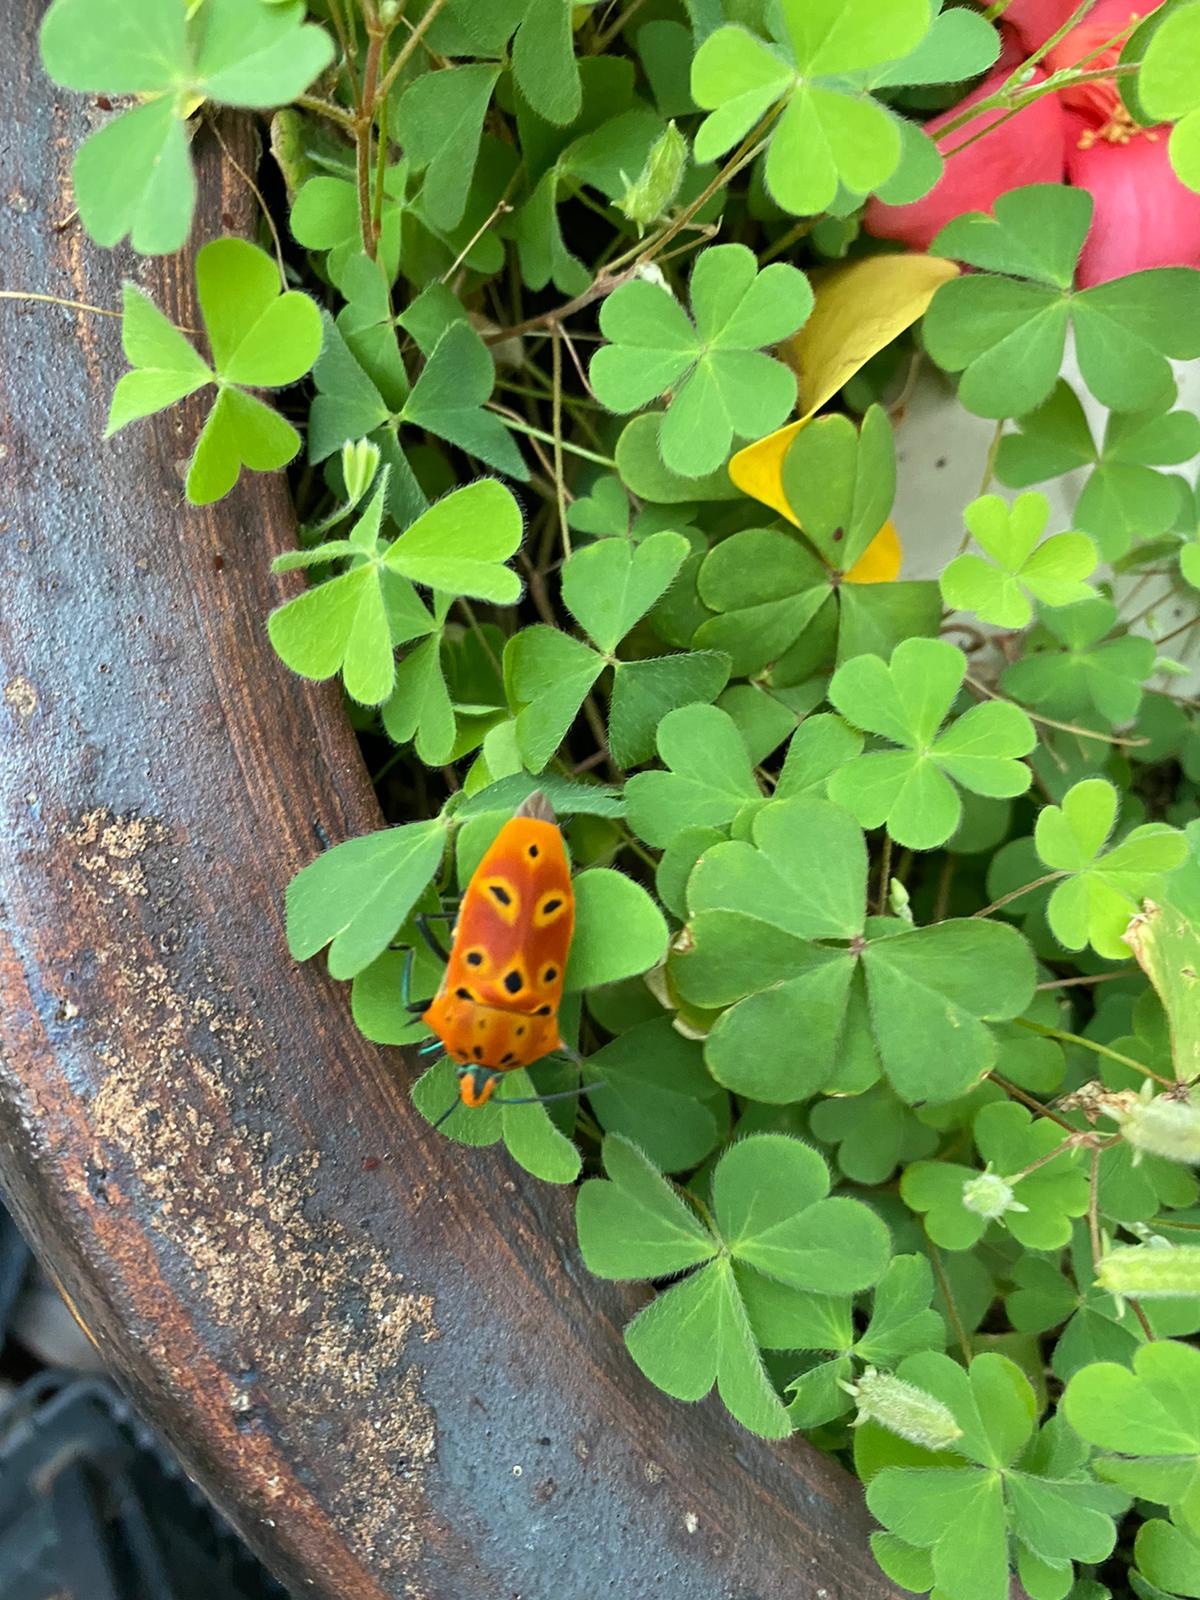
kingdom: Animalia
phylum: Arthropoda
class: Insecta
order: Hemiptera
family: Scutelleridae
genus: Cantao
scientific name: Cantao ocellatus
